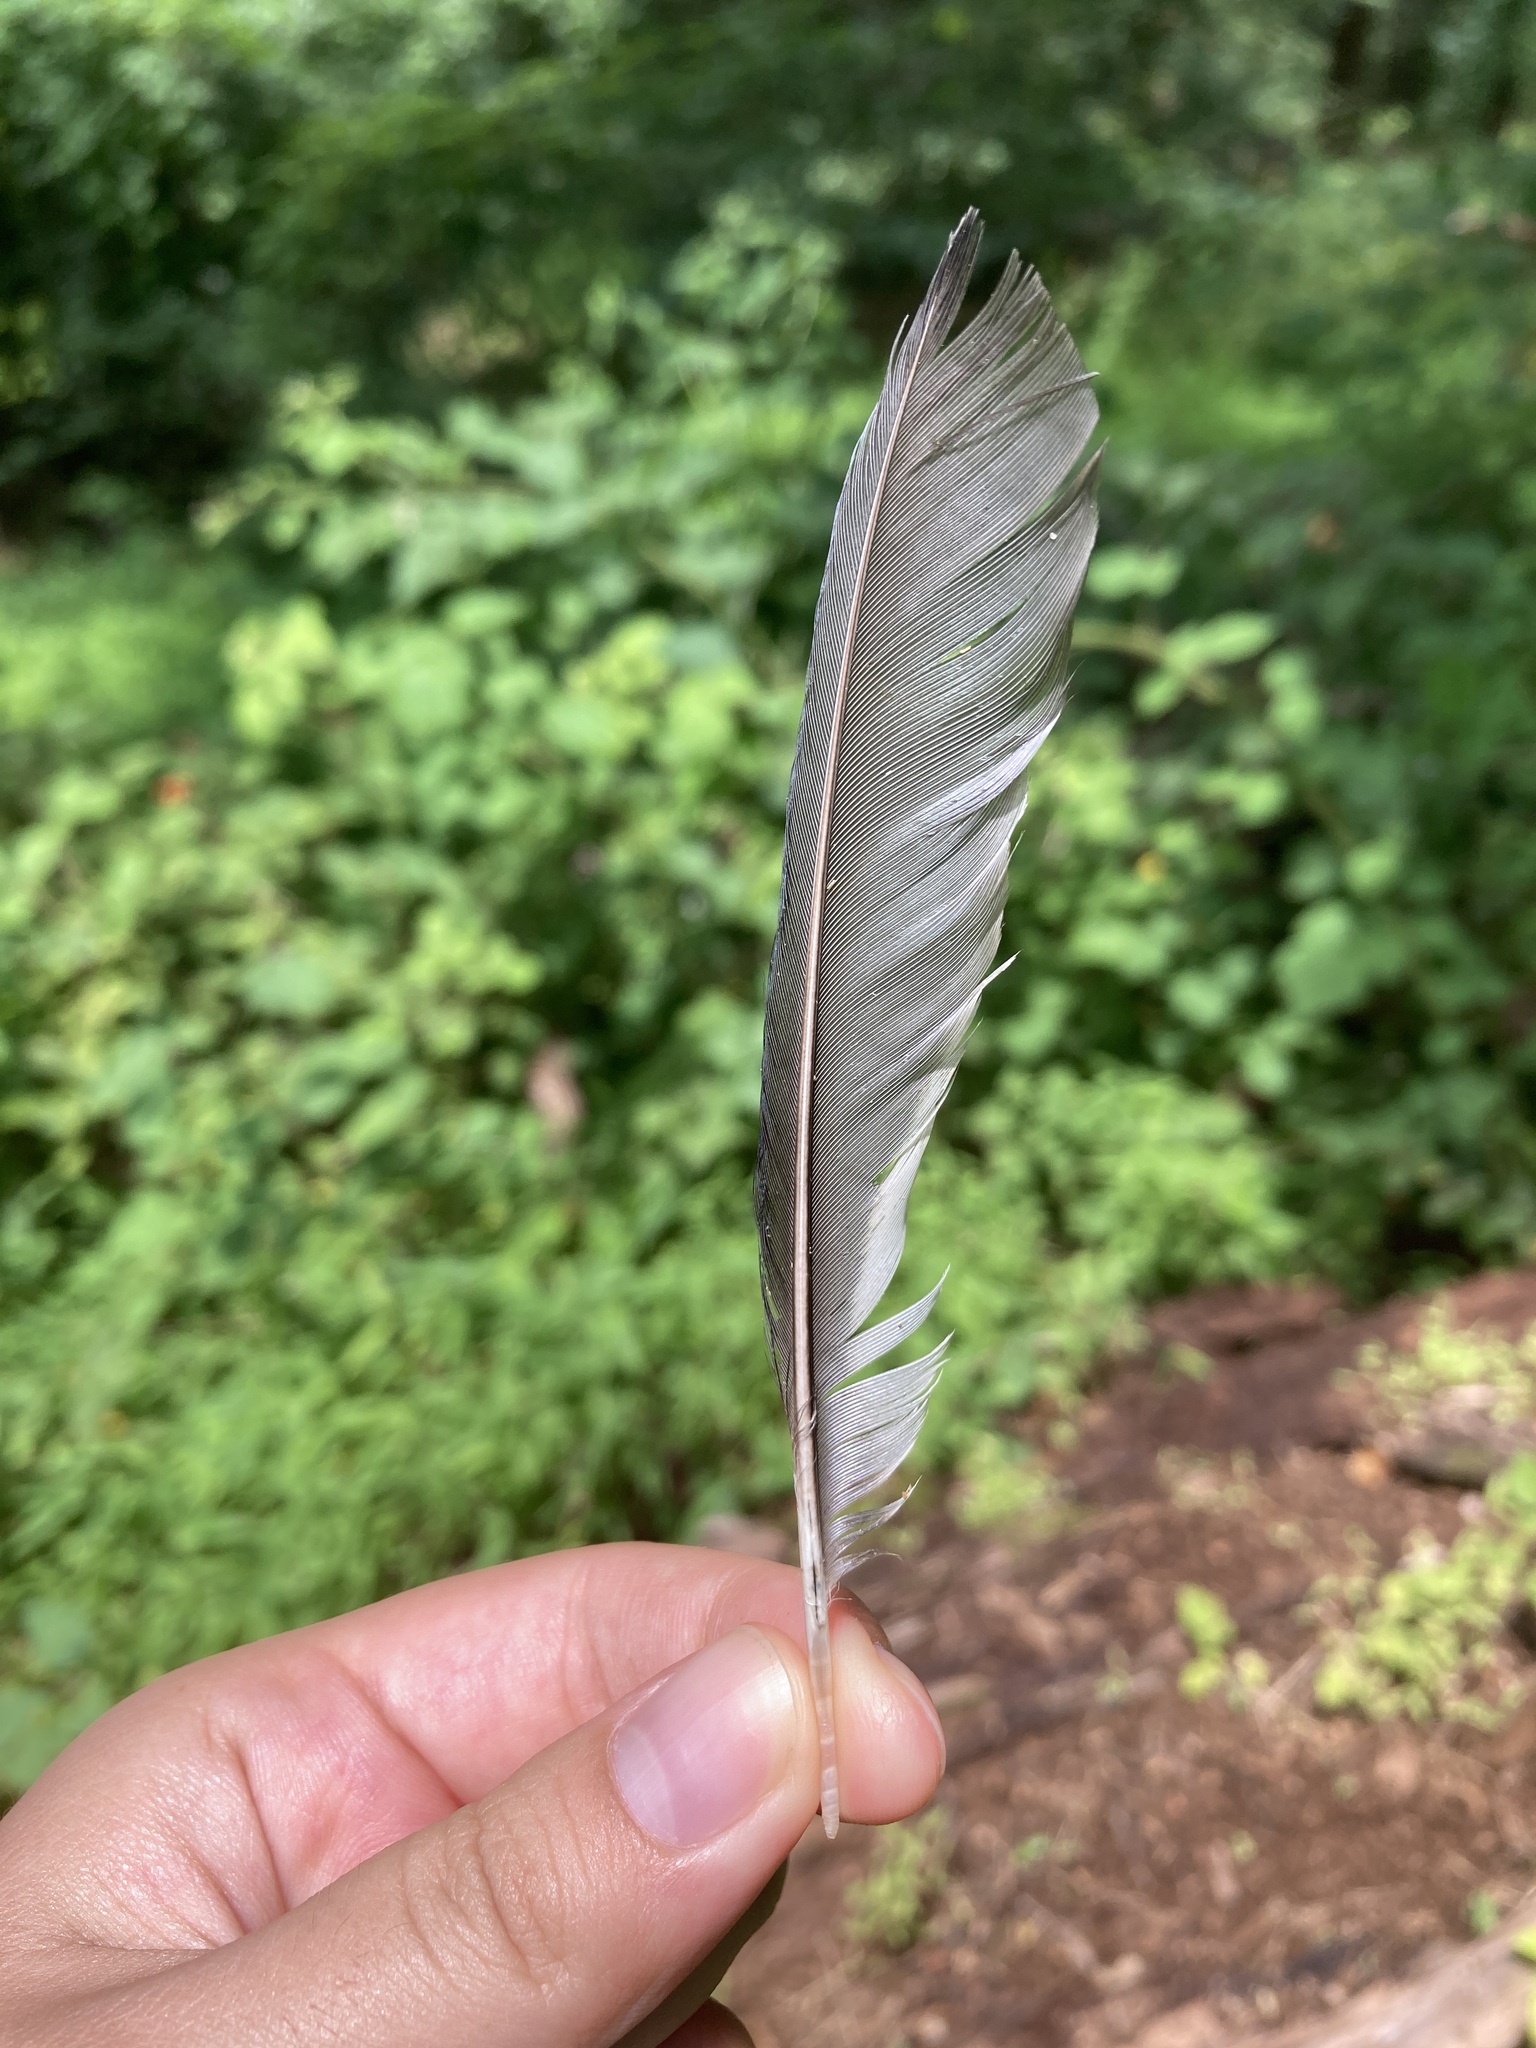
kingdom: Animalia
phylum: Chordata
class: Aves
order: Passeriformes
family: Corvidae
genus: Cyanocitta
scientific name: Cyanocitta cristata
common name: Blue jay
